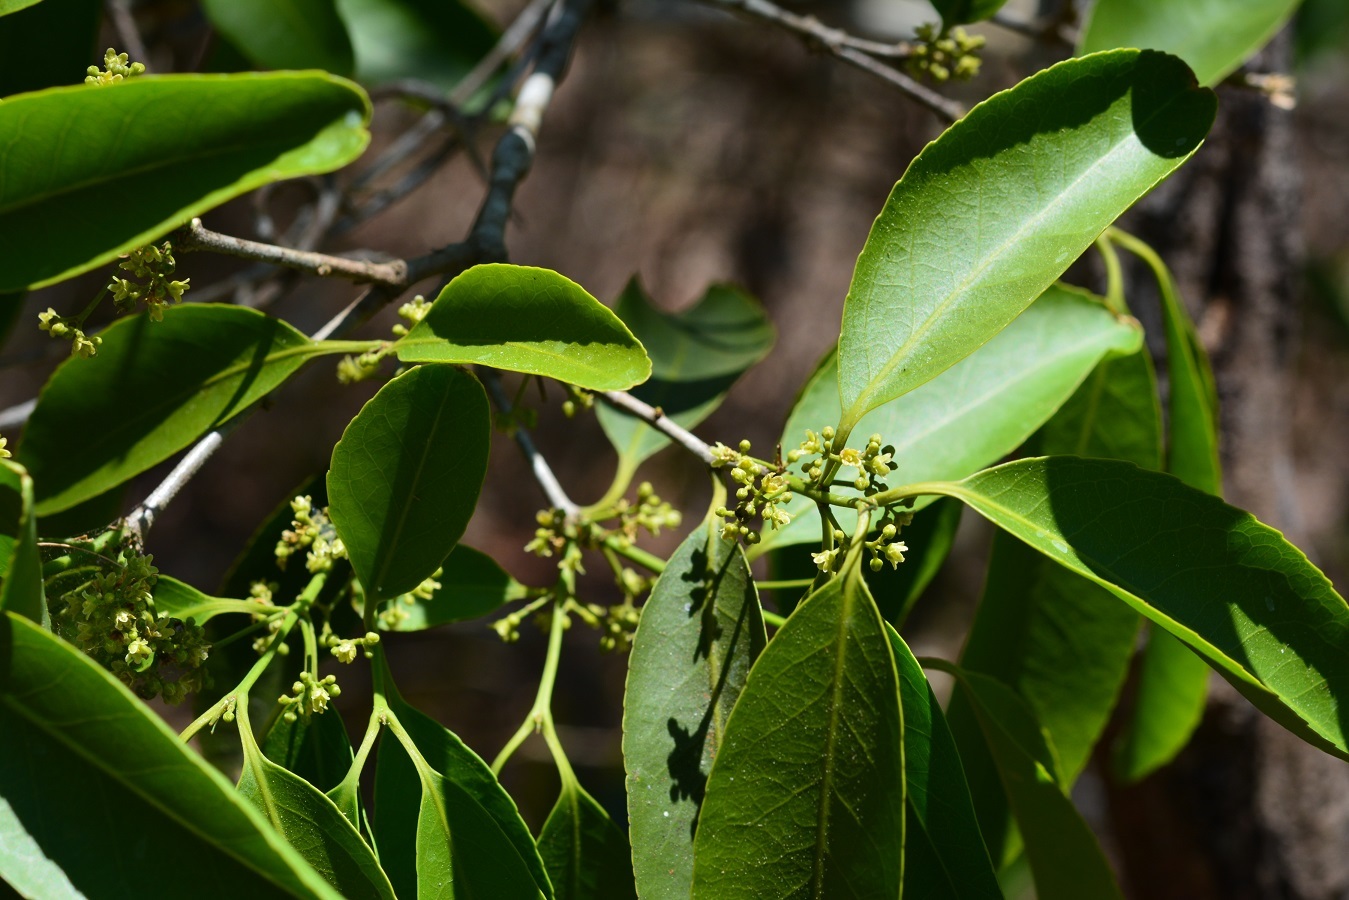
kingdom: Plantae
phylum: Tracheophyta
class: Magnoliopsida
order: Celastrales
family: Celastraceae
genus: Pristimera
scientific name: Pristimera celastroides
